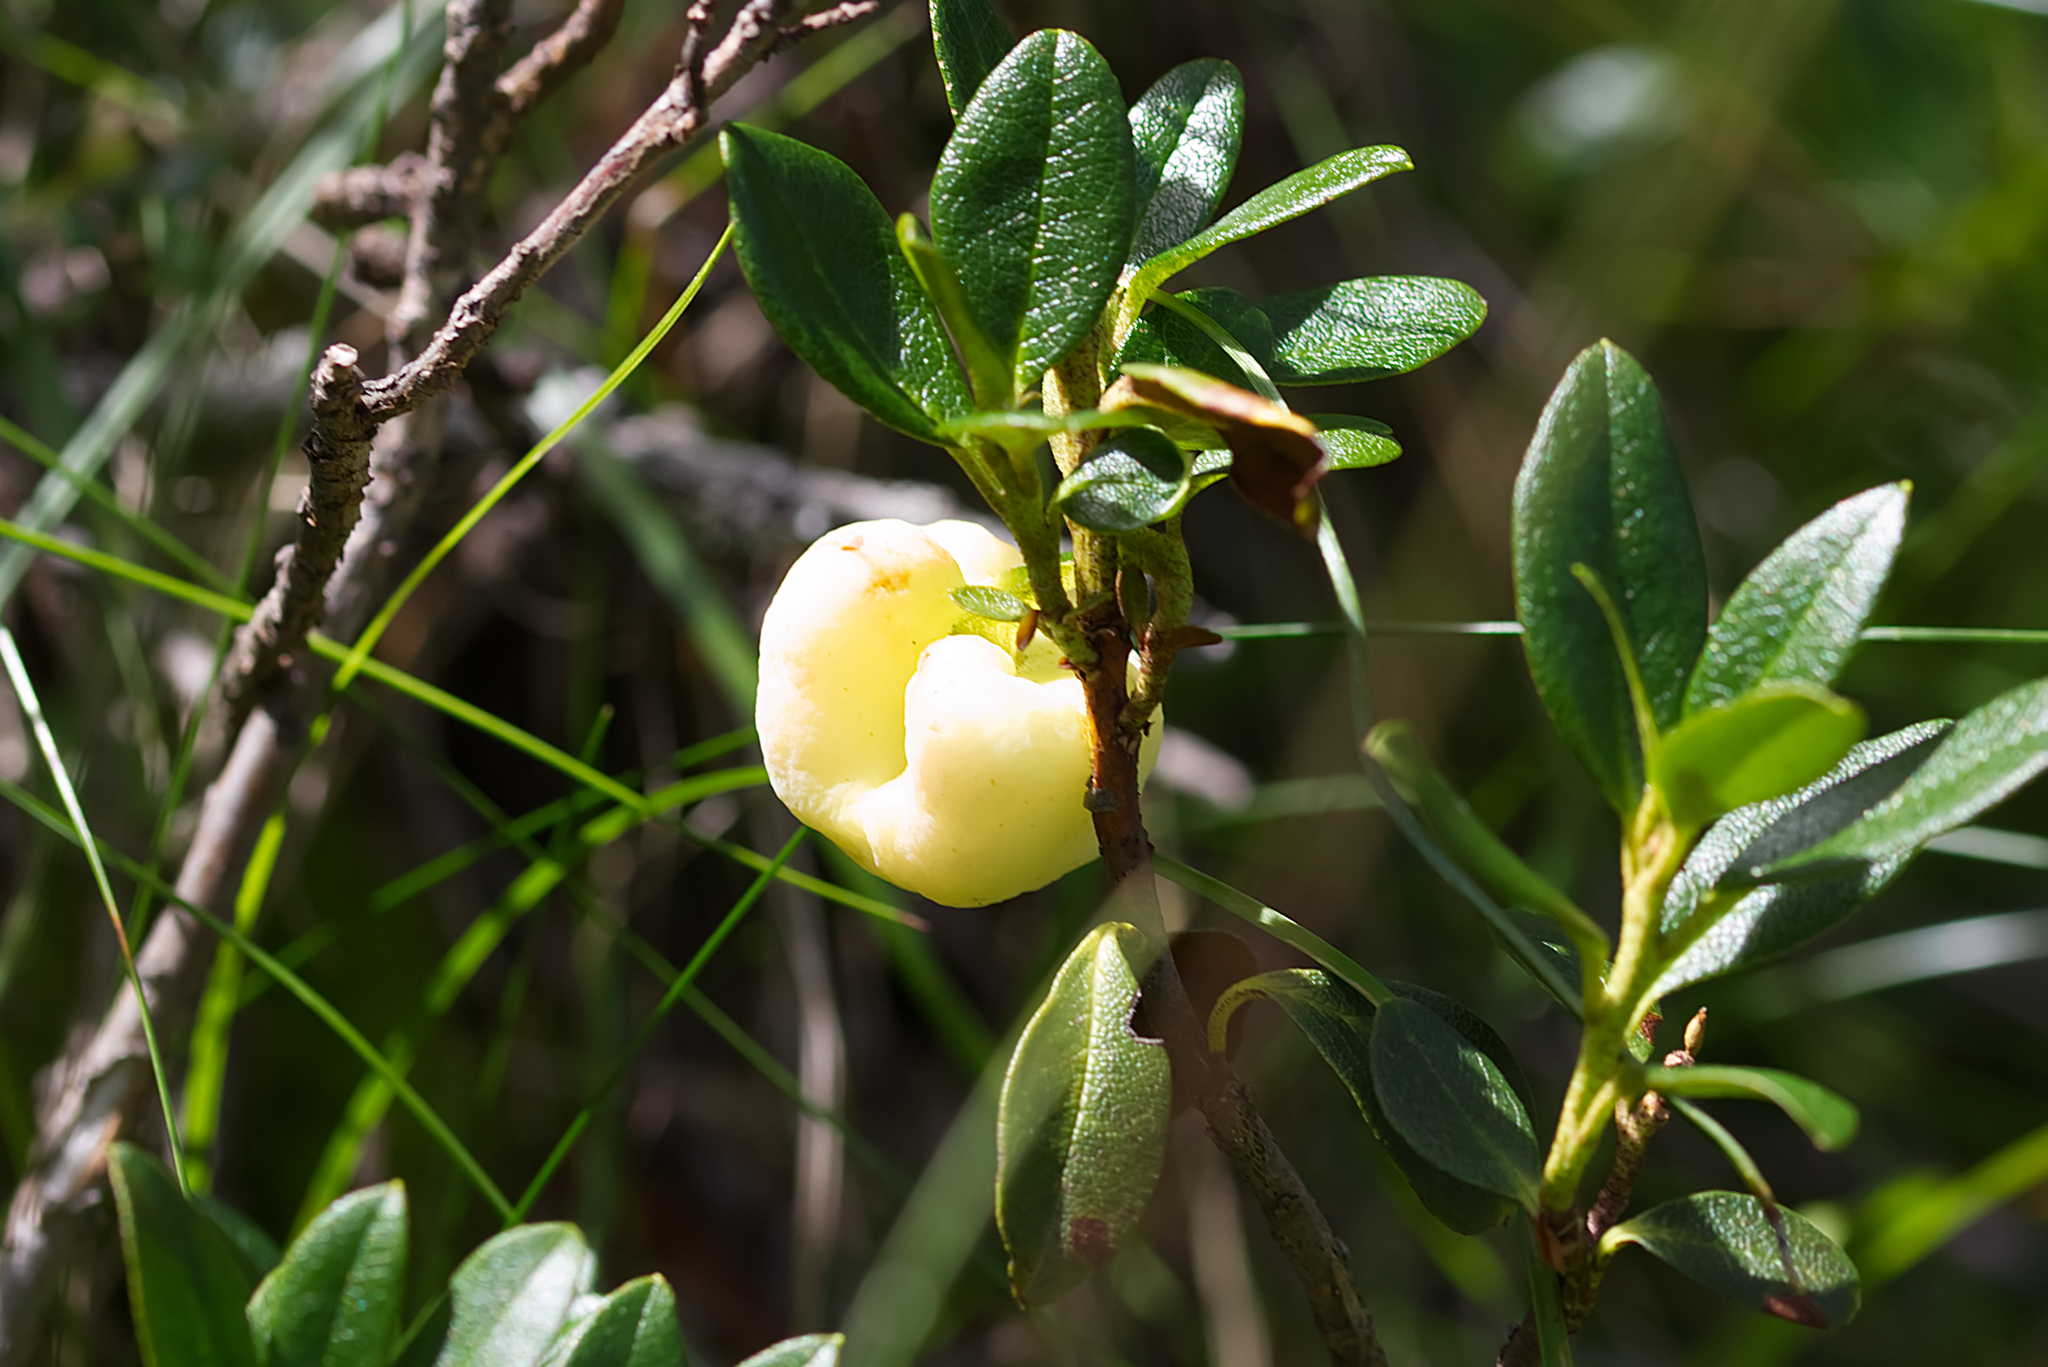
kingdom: Fungi
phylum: Basidiomycota
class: Exobasidiomycetes
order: Exobasidiales
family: Exobasidiaceae
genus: Exobasidium
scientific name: Exobasidium rhododendri
